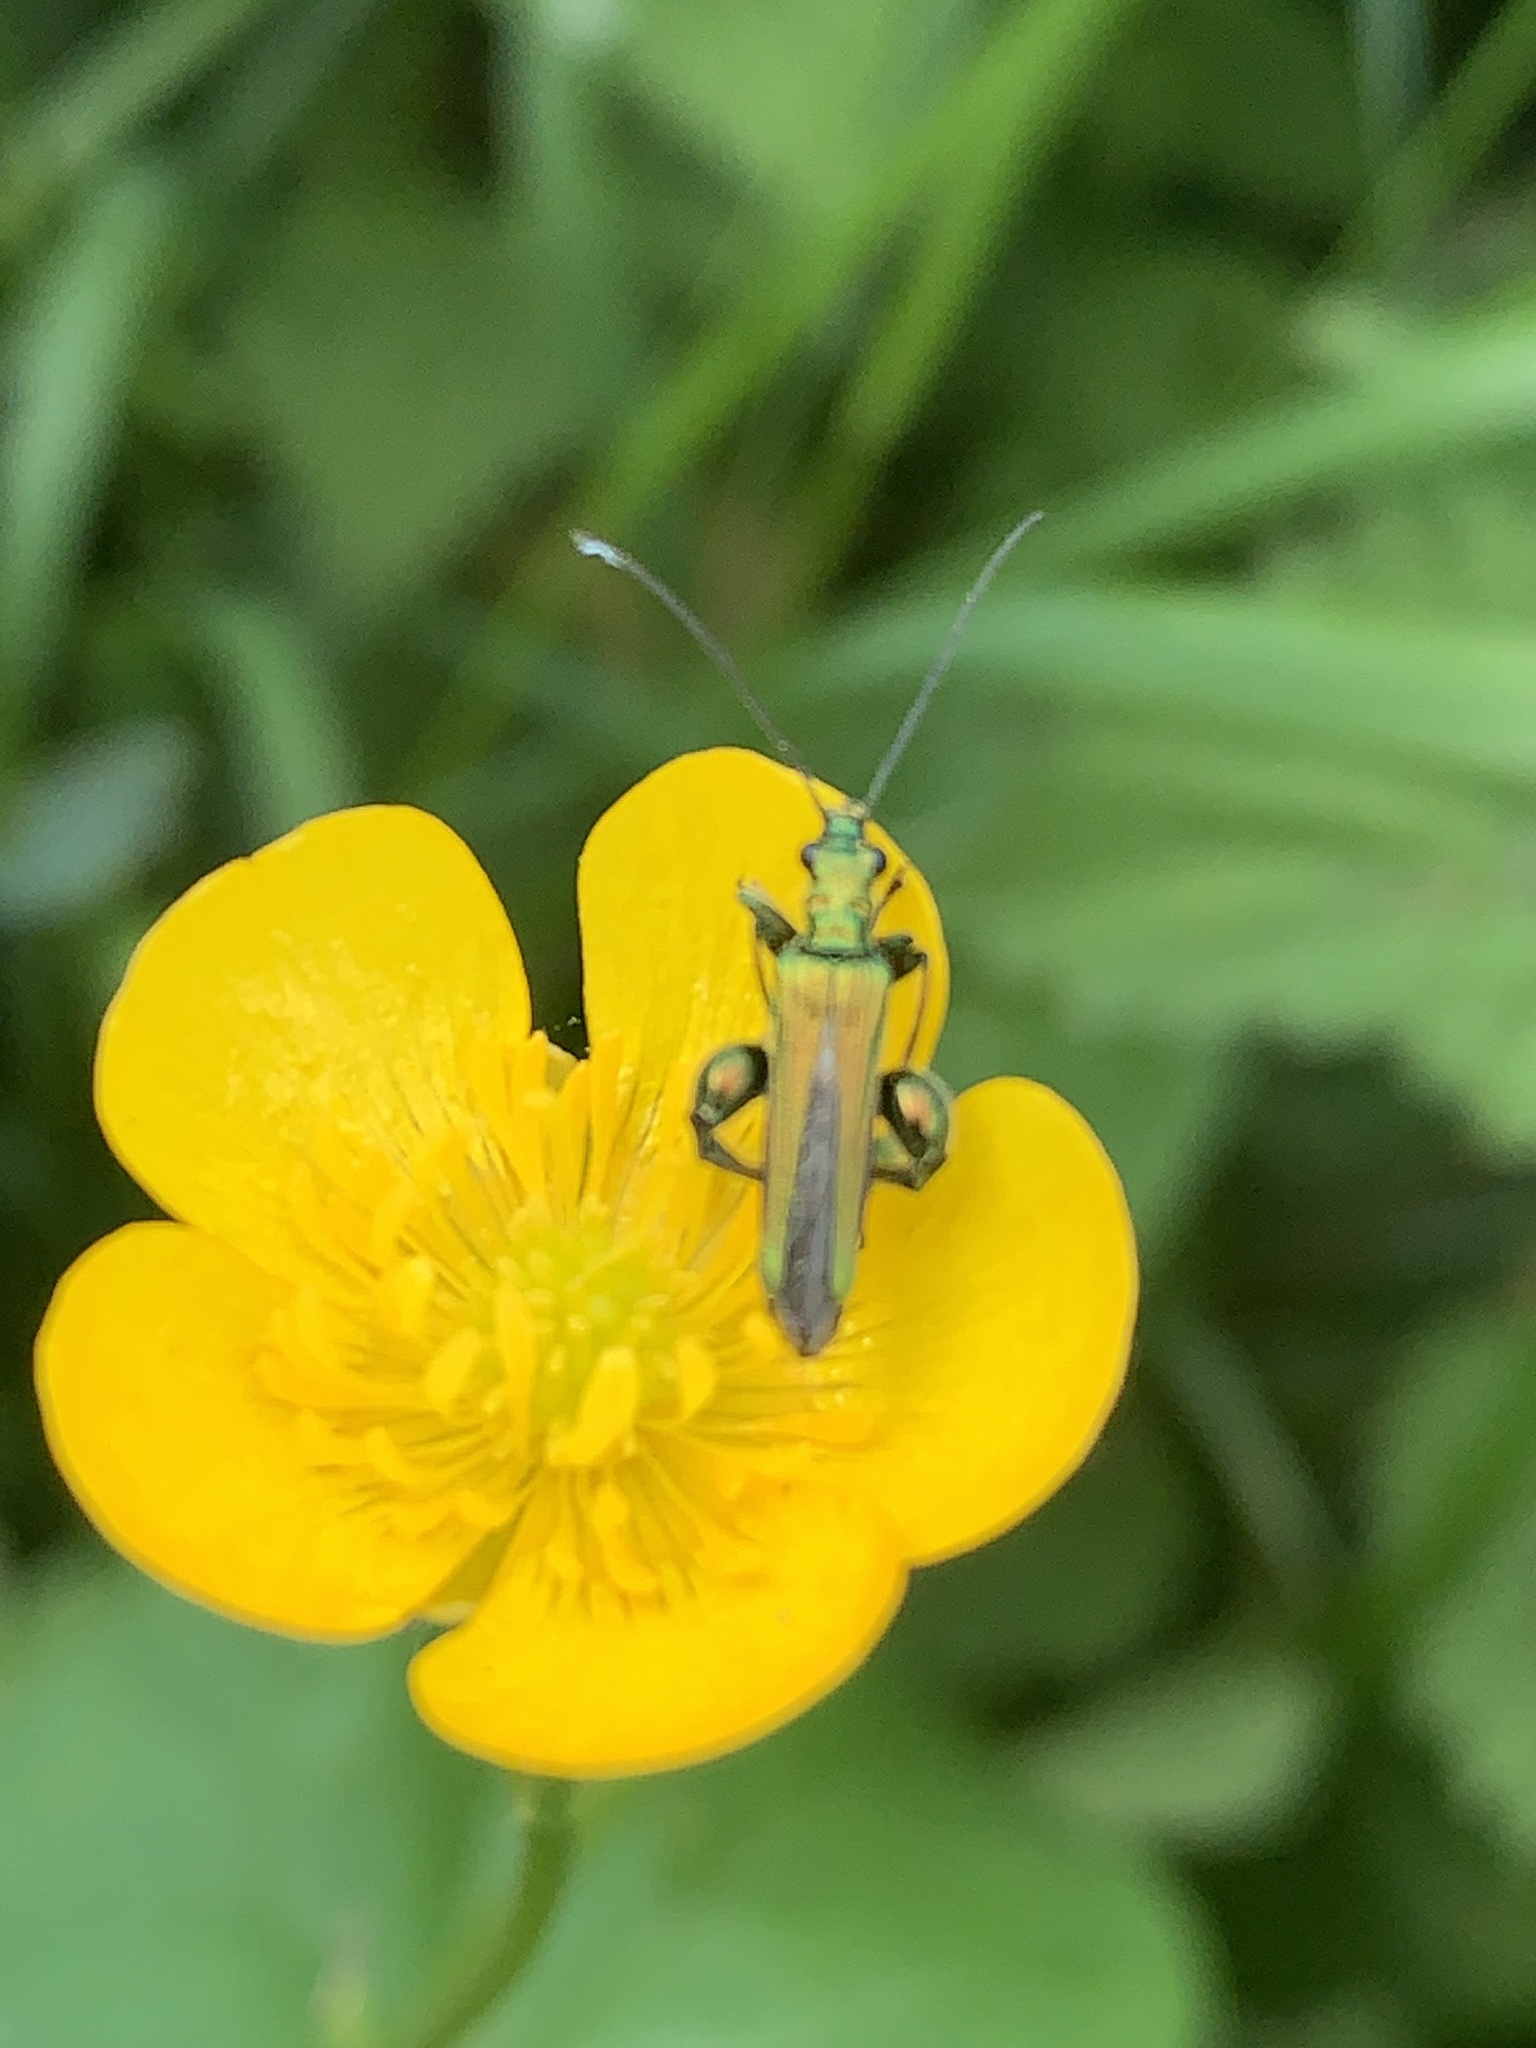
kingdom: Animalia
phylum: Arthropoda
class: Insecta
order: Coleoptera
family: Oedemeridae
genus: Oedemera
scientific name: Oedemera nobilis
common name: Swollen-thighed beetle
